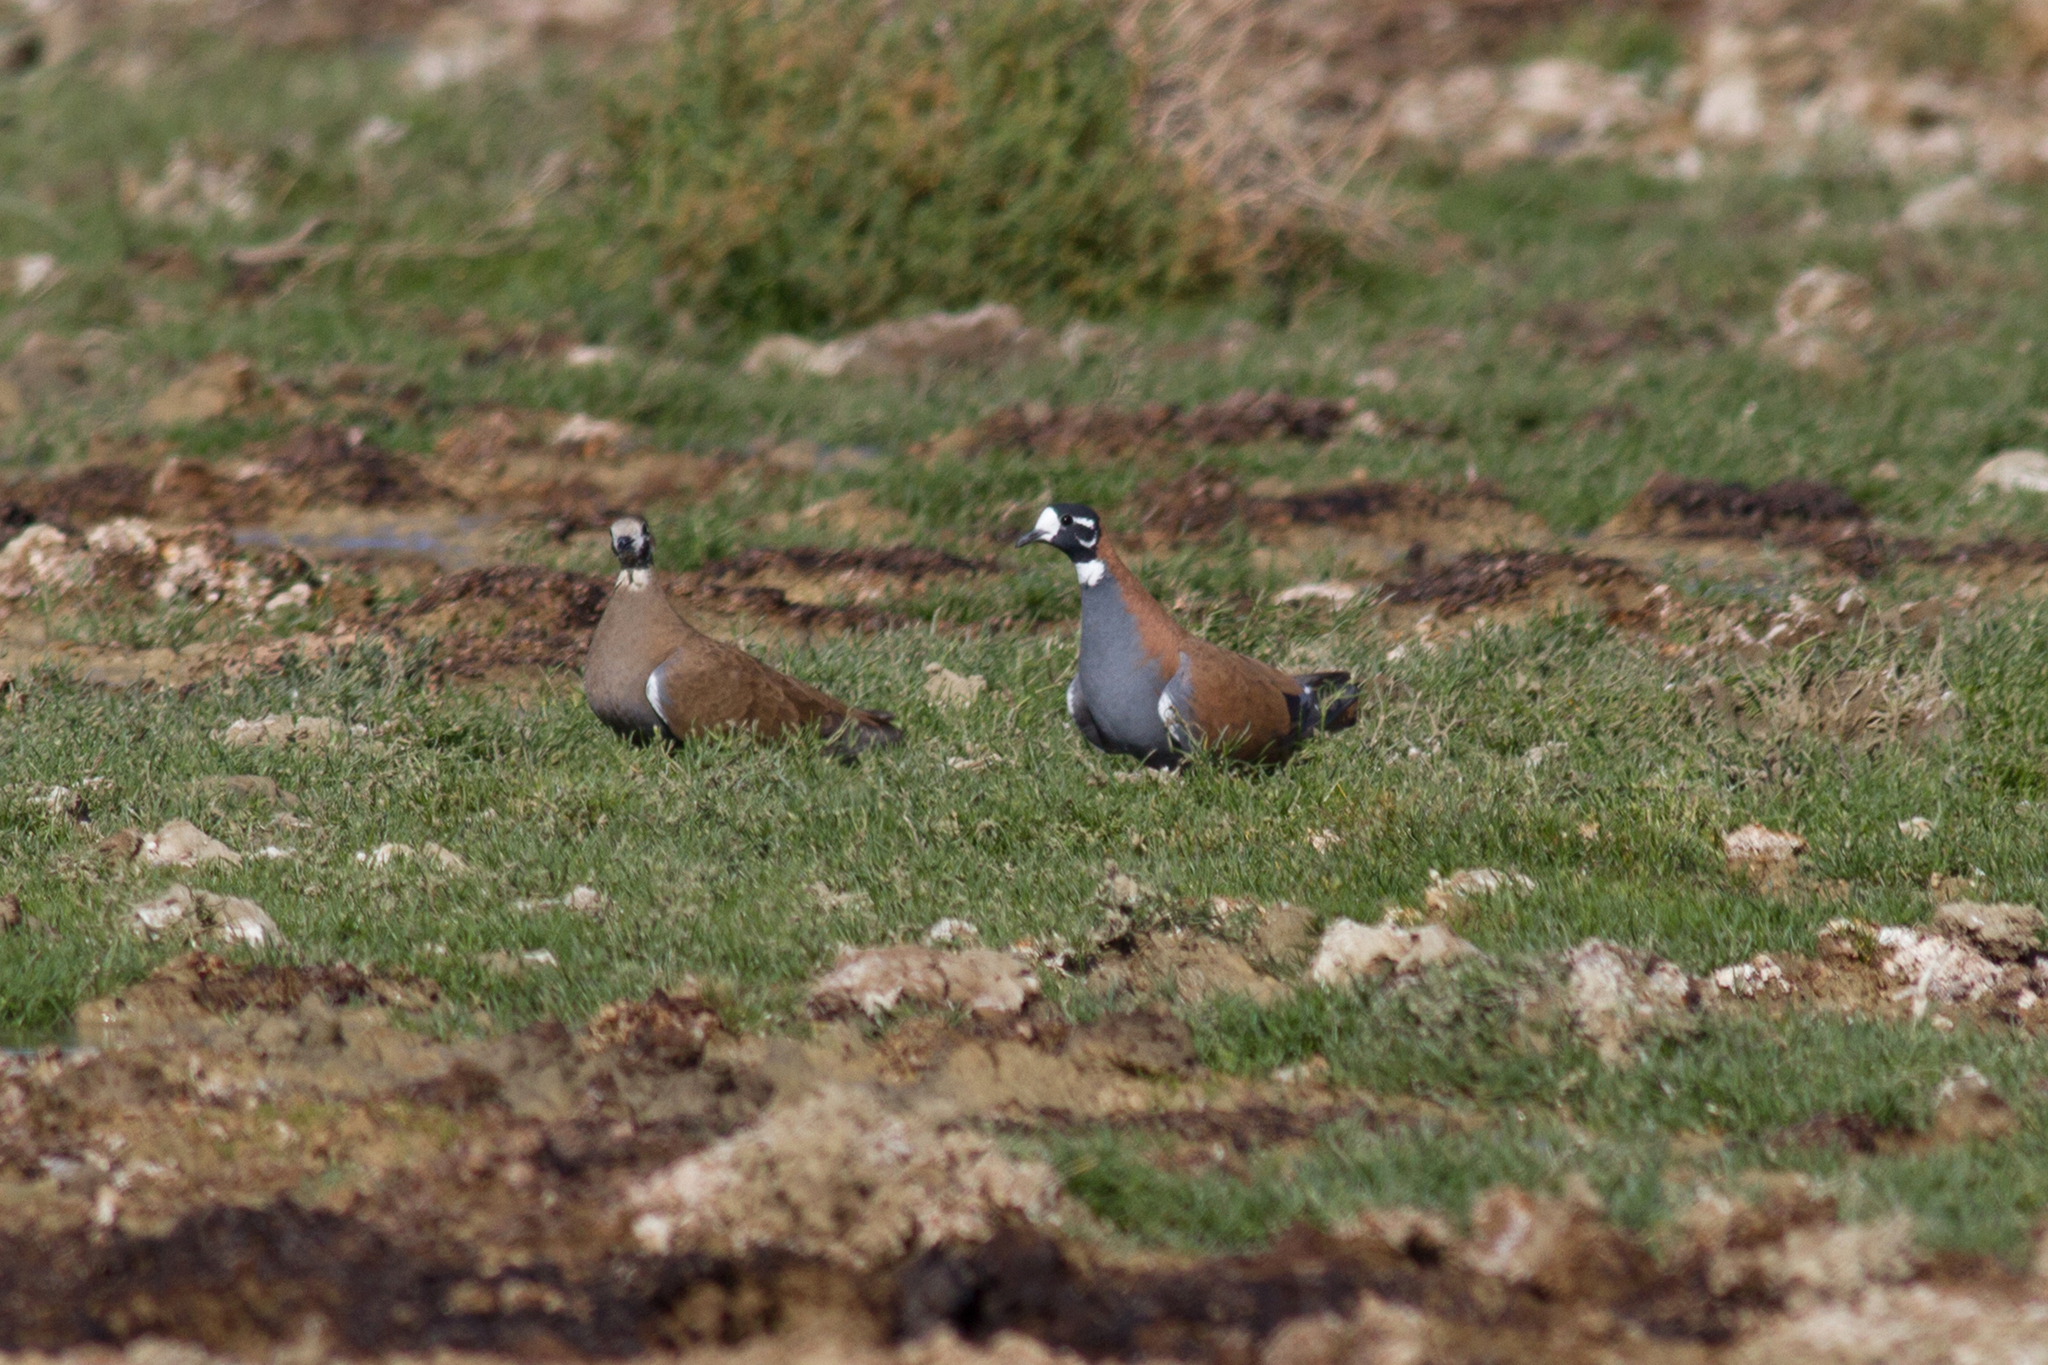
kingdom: Animalia
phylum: Chordata
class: Aves
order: Columbiformes
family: Columbidae
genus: Phaps
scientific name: Phaps histrionica
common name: Flock bronzewing
